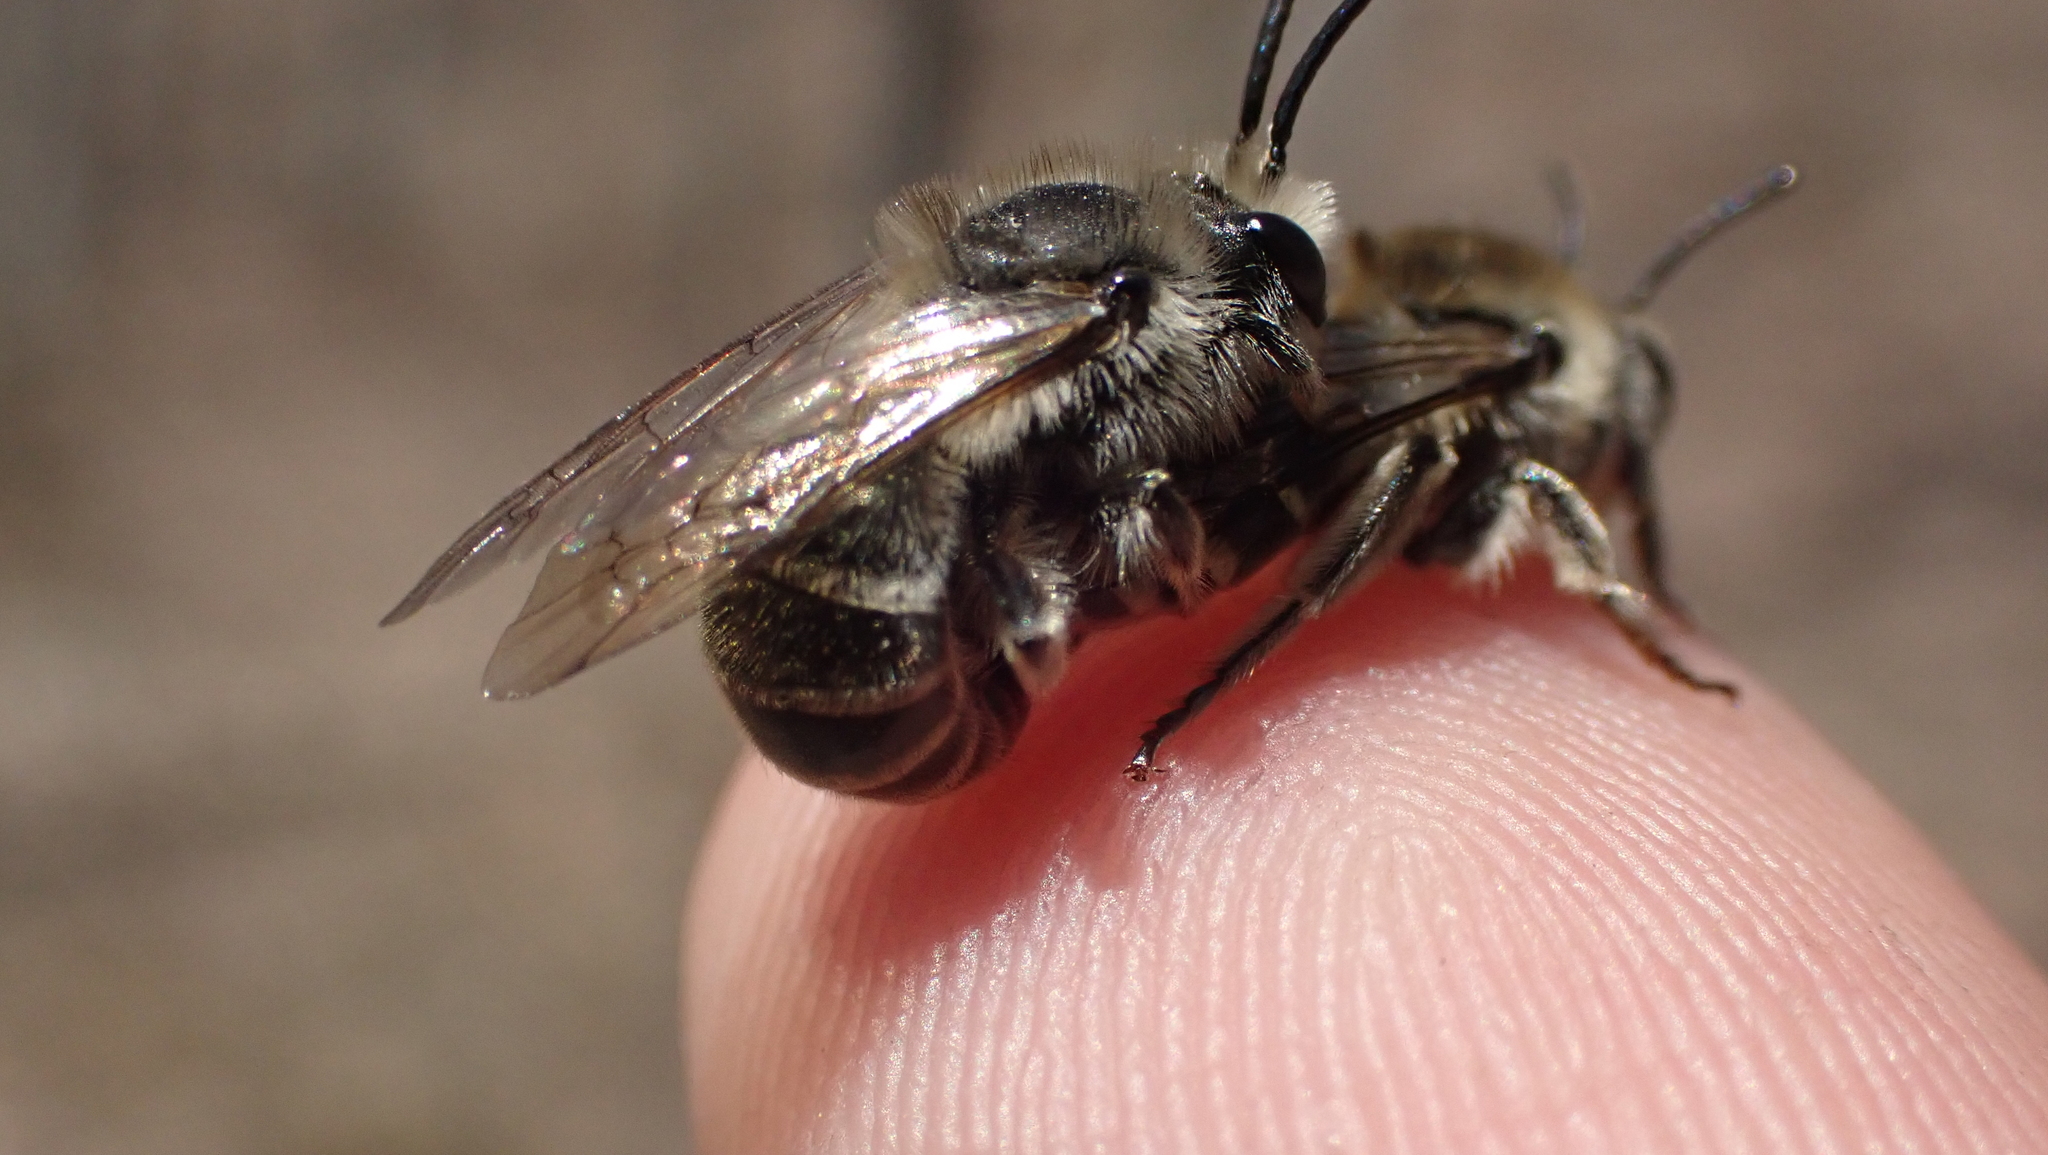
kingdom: Animalia
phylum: Arthropoda
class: Insecta
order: Hymenoptera
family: Colletidae
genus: Colletes
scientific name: Colletes inaequalis
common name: Unequal cellophane bee
